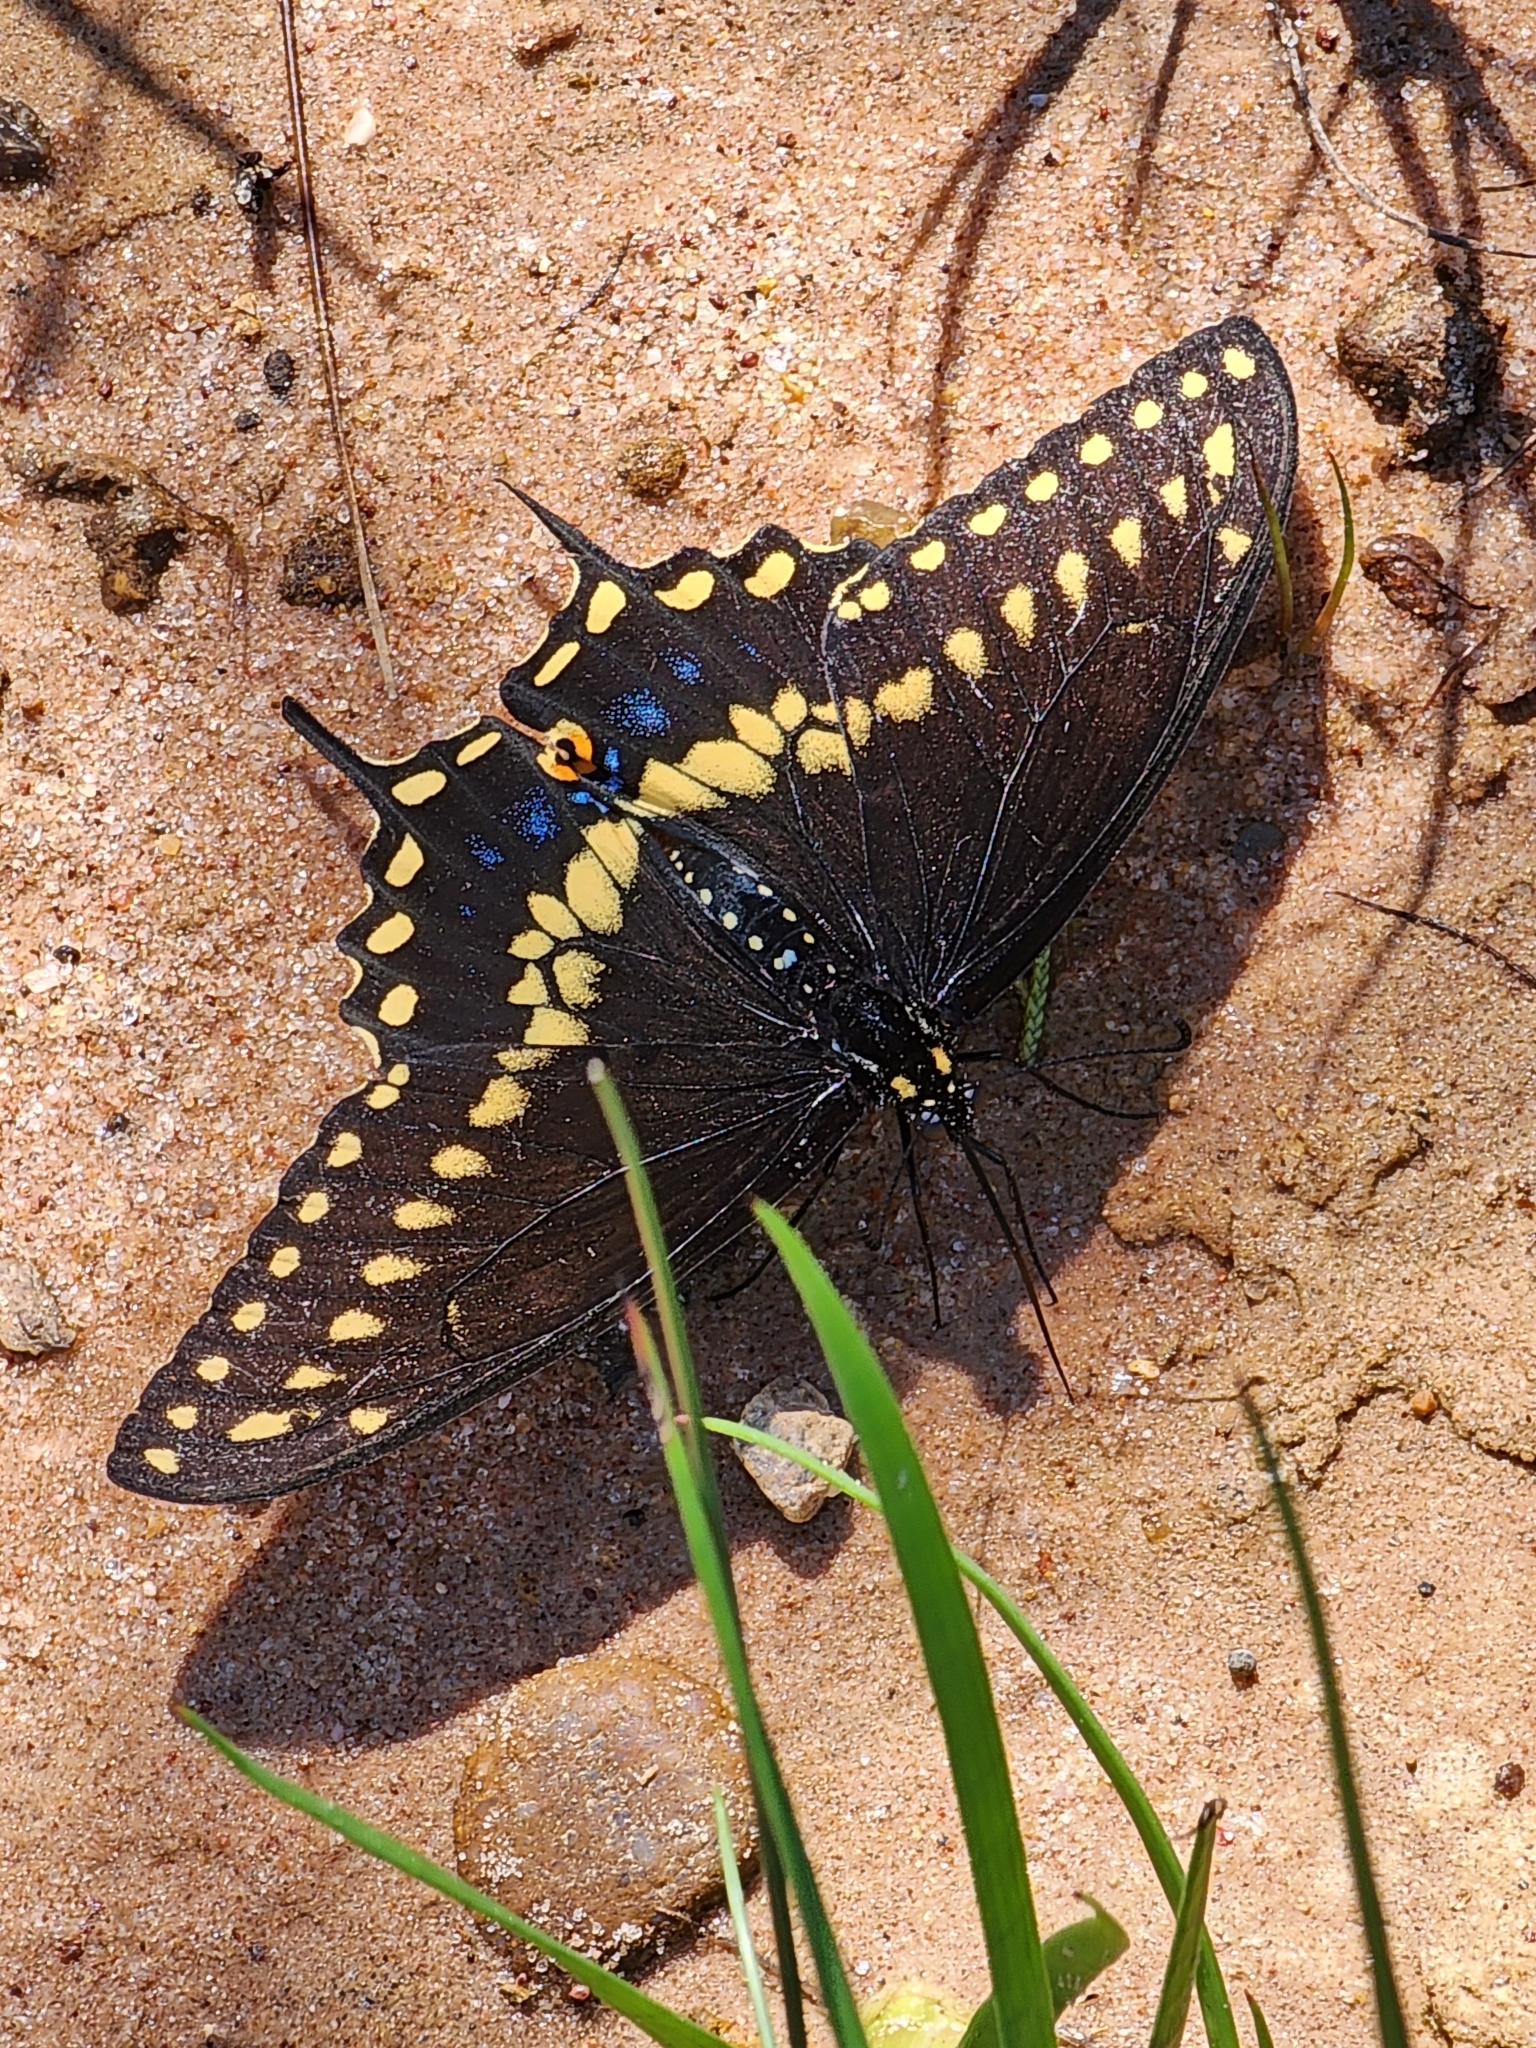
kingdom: Animalia
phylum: Arthropoda
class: Insecta
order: Lepidoptera
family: Papilionidae
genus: Papilio
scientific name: Papilio polyxenes
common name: Black swallowtail
